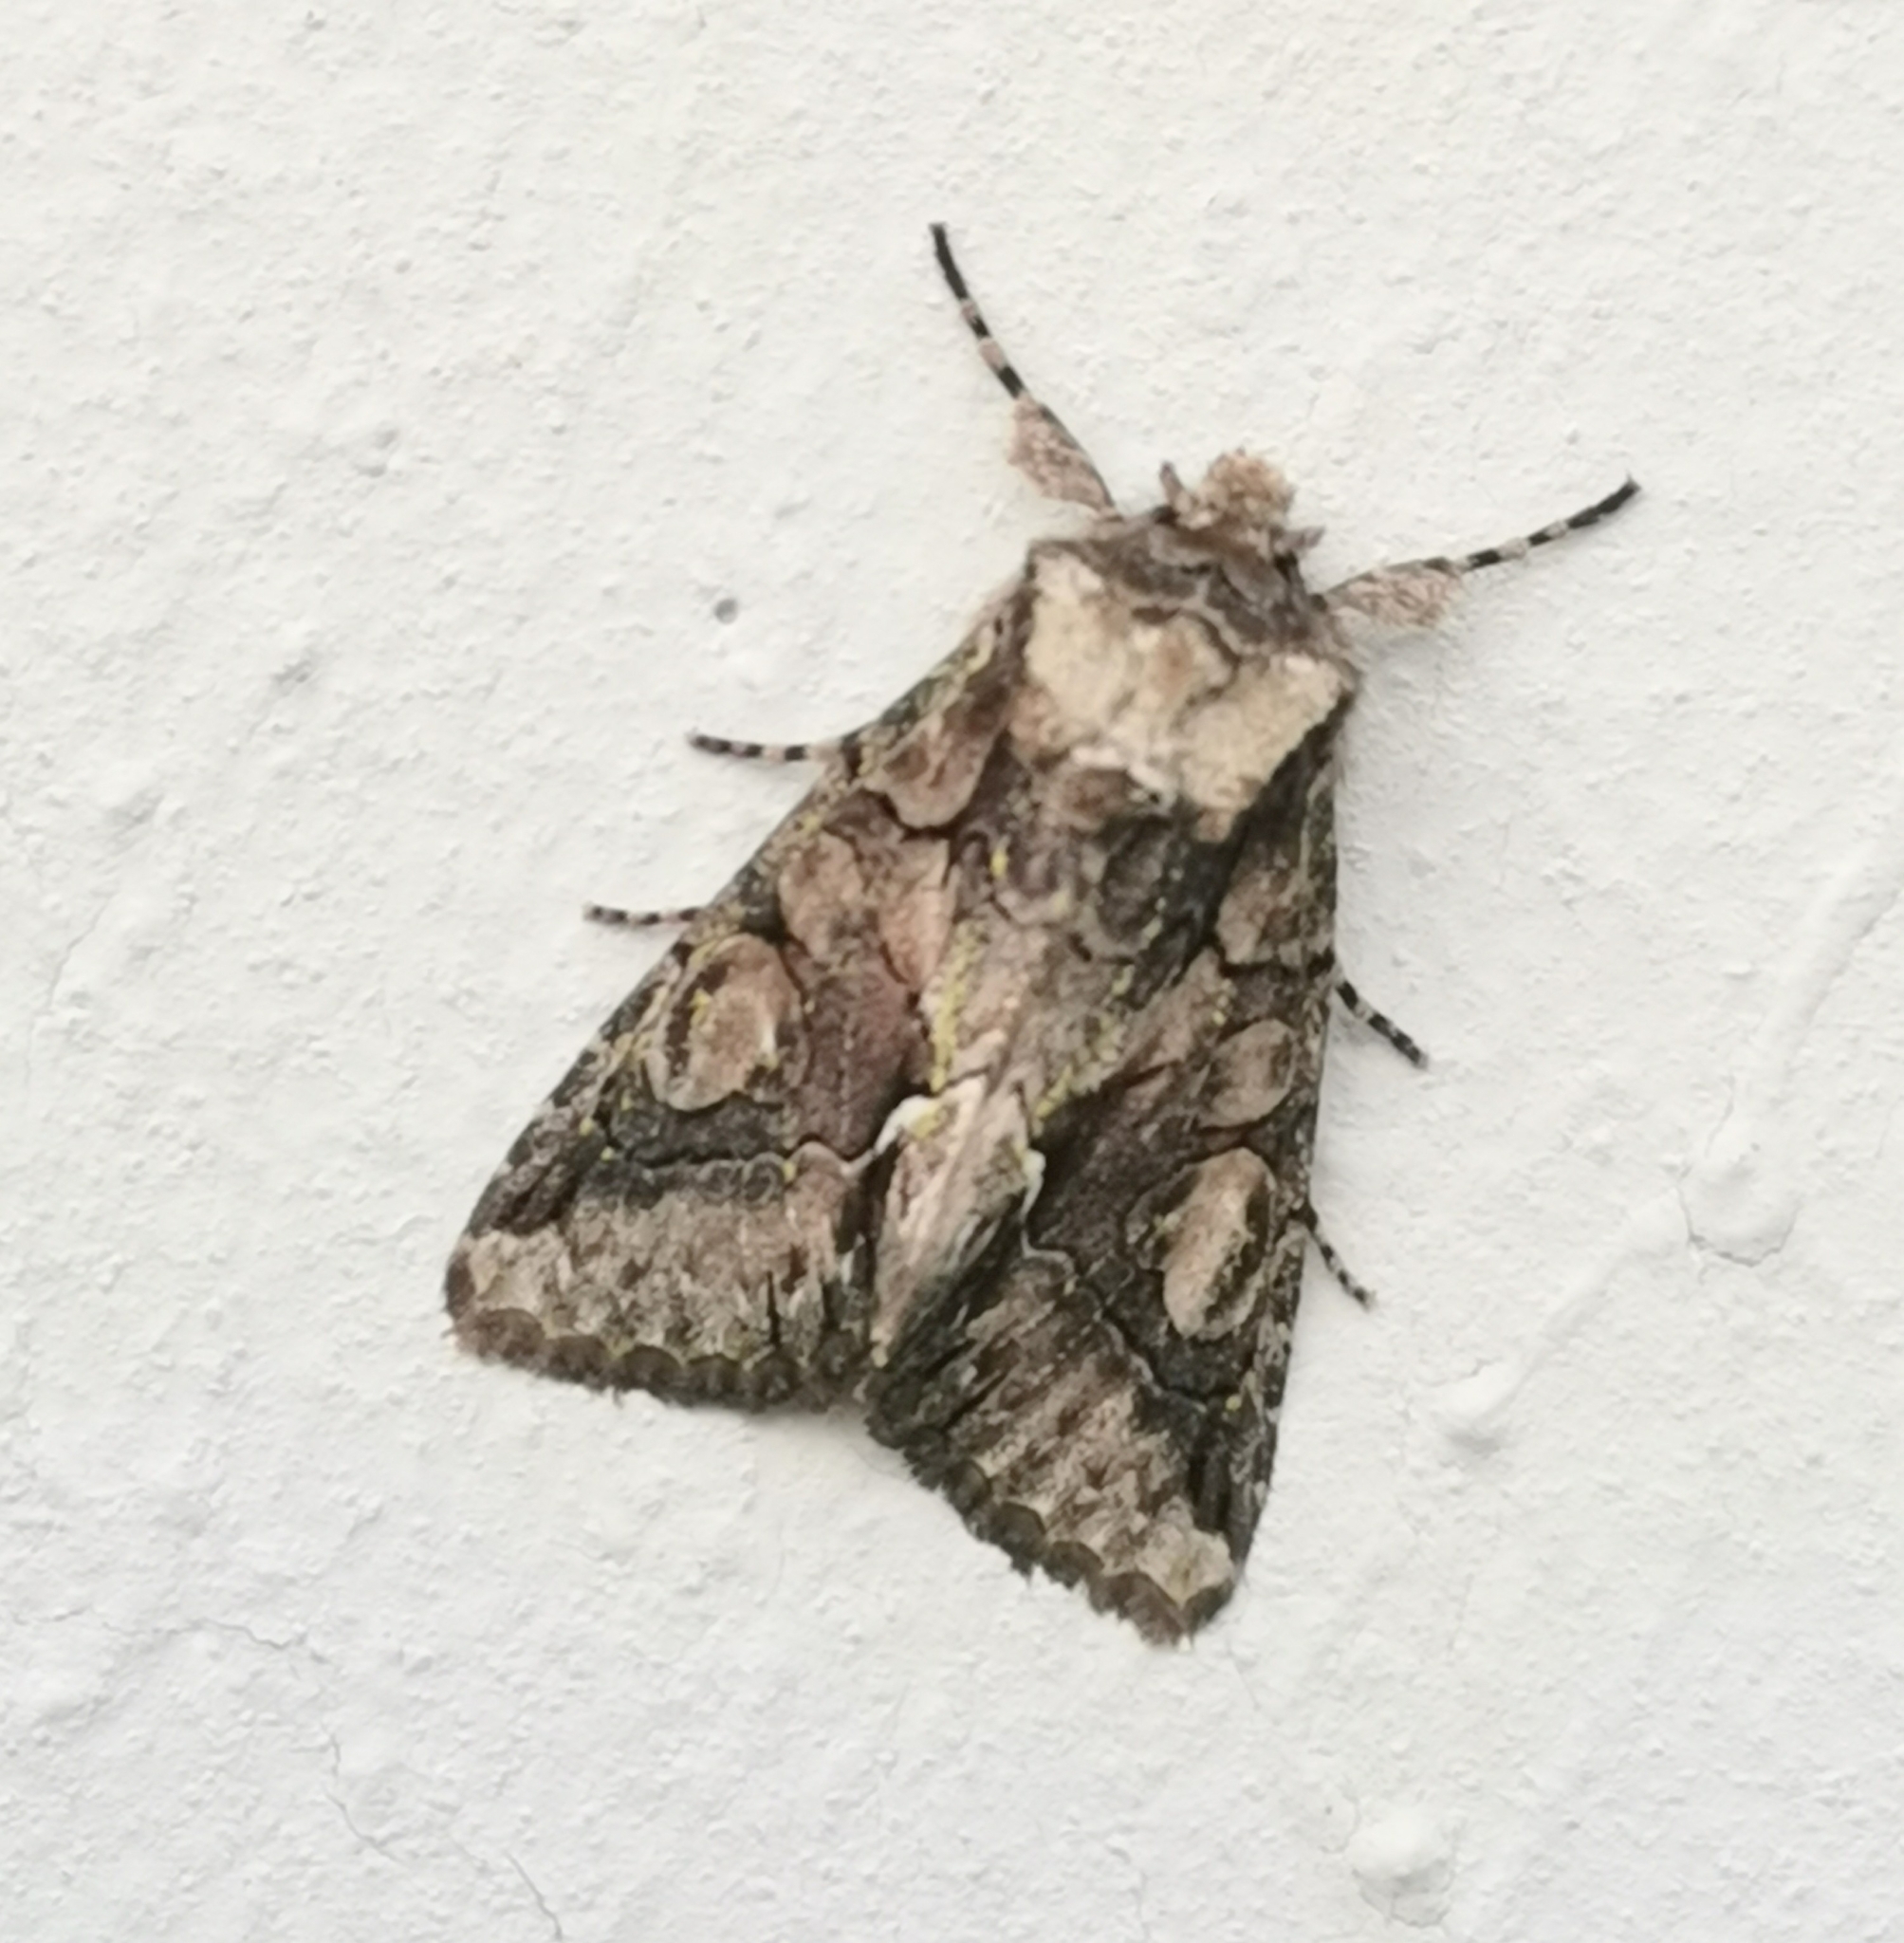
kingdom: Animalia
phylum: Arthropoda
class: Insecta
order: Lepidoptera
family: Noctuidae
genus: Allophyes
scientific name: Allophyes oxyacanthae
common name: Green-brindled crescent
